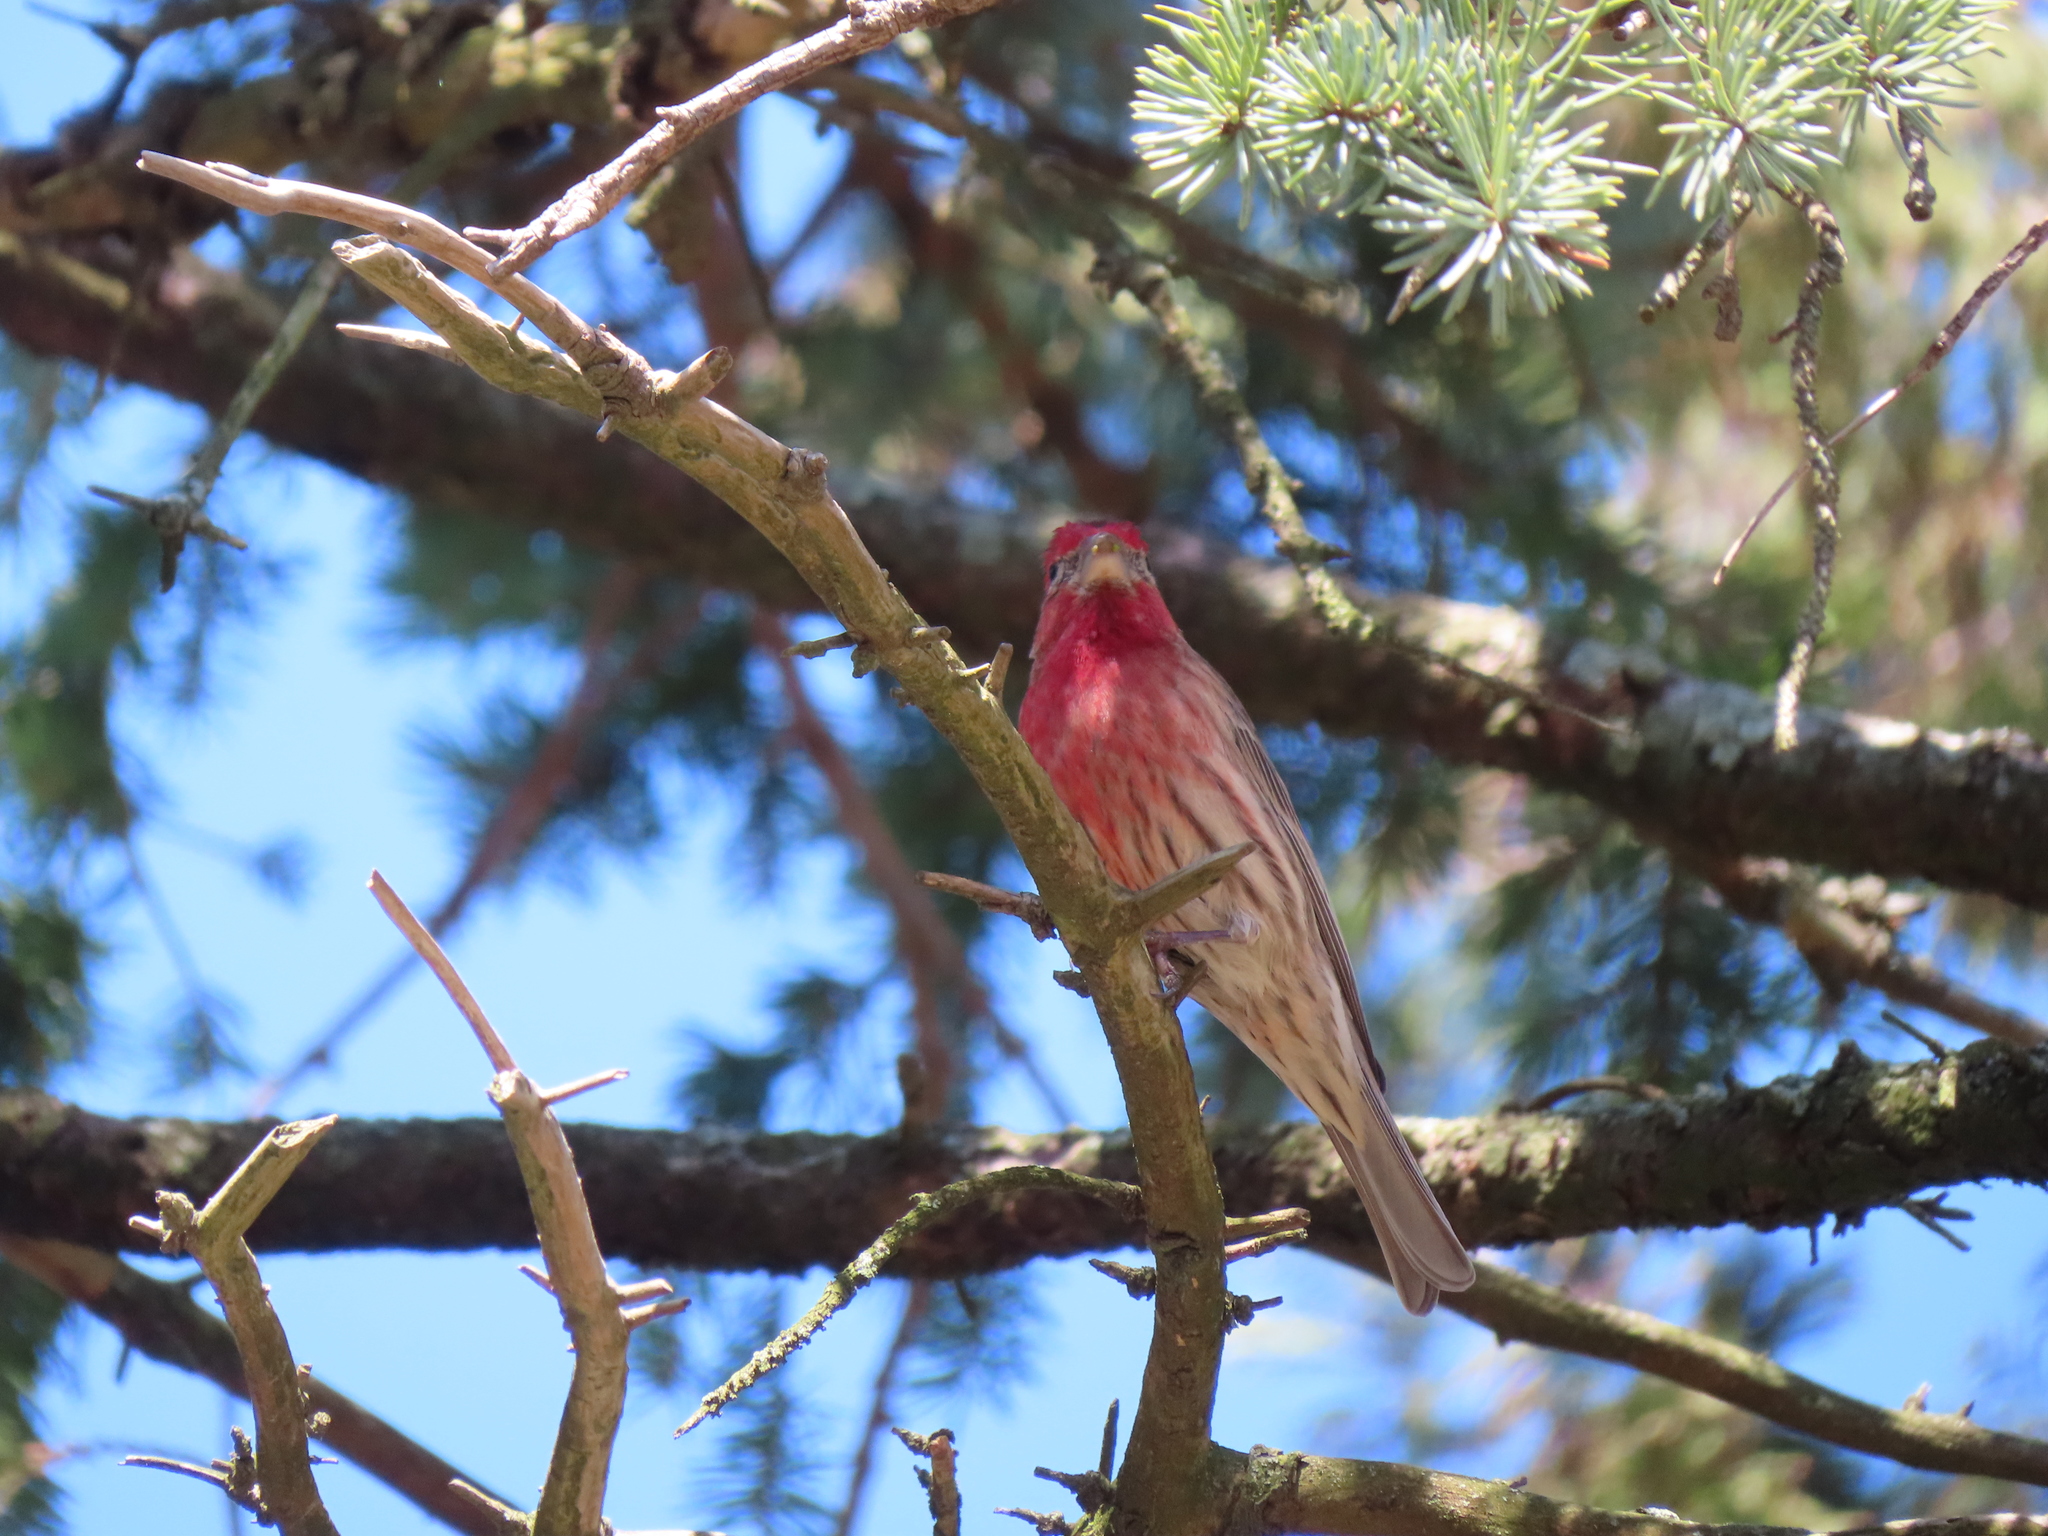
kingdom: Animalia
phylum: Chordata
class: Aves
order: Passeriformes
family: Fringillidae
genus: Haemorhous
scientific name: Haemorhous mexicanus
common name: House finch
